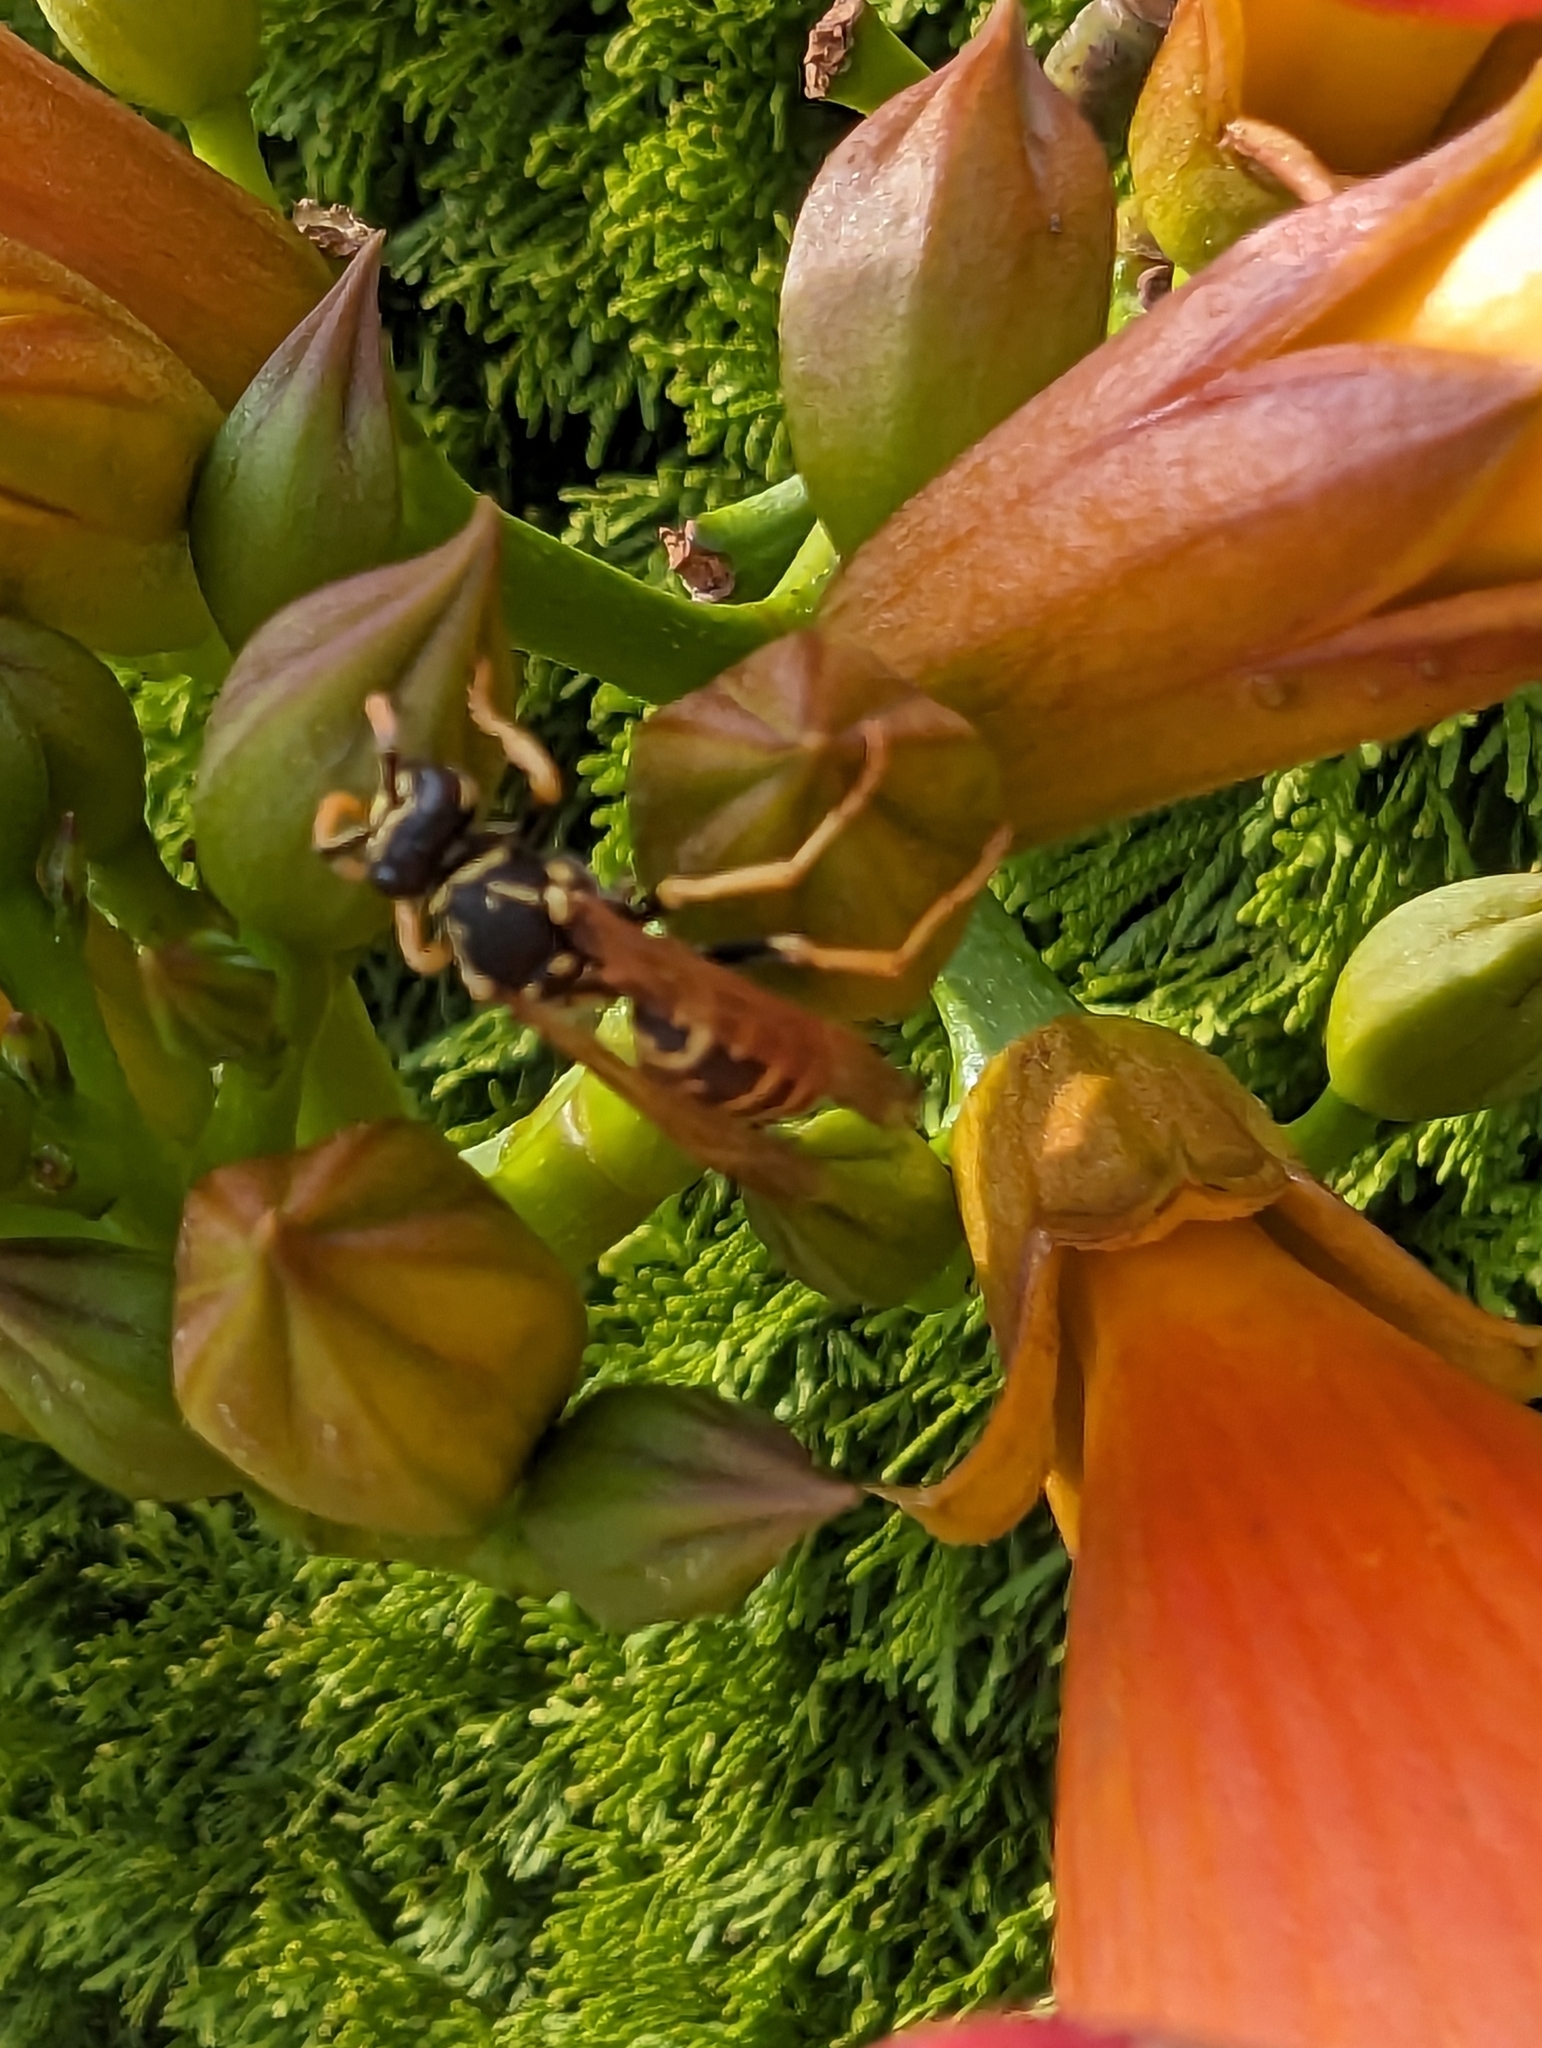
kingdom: Animalia
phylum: Arthropoda
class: Insecta
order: Hymenoptera
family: Eumenidae
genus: Polistes
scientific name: Polistes dominula
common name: Paper wasp
